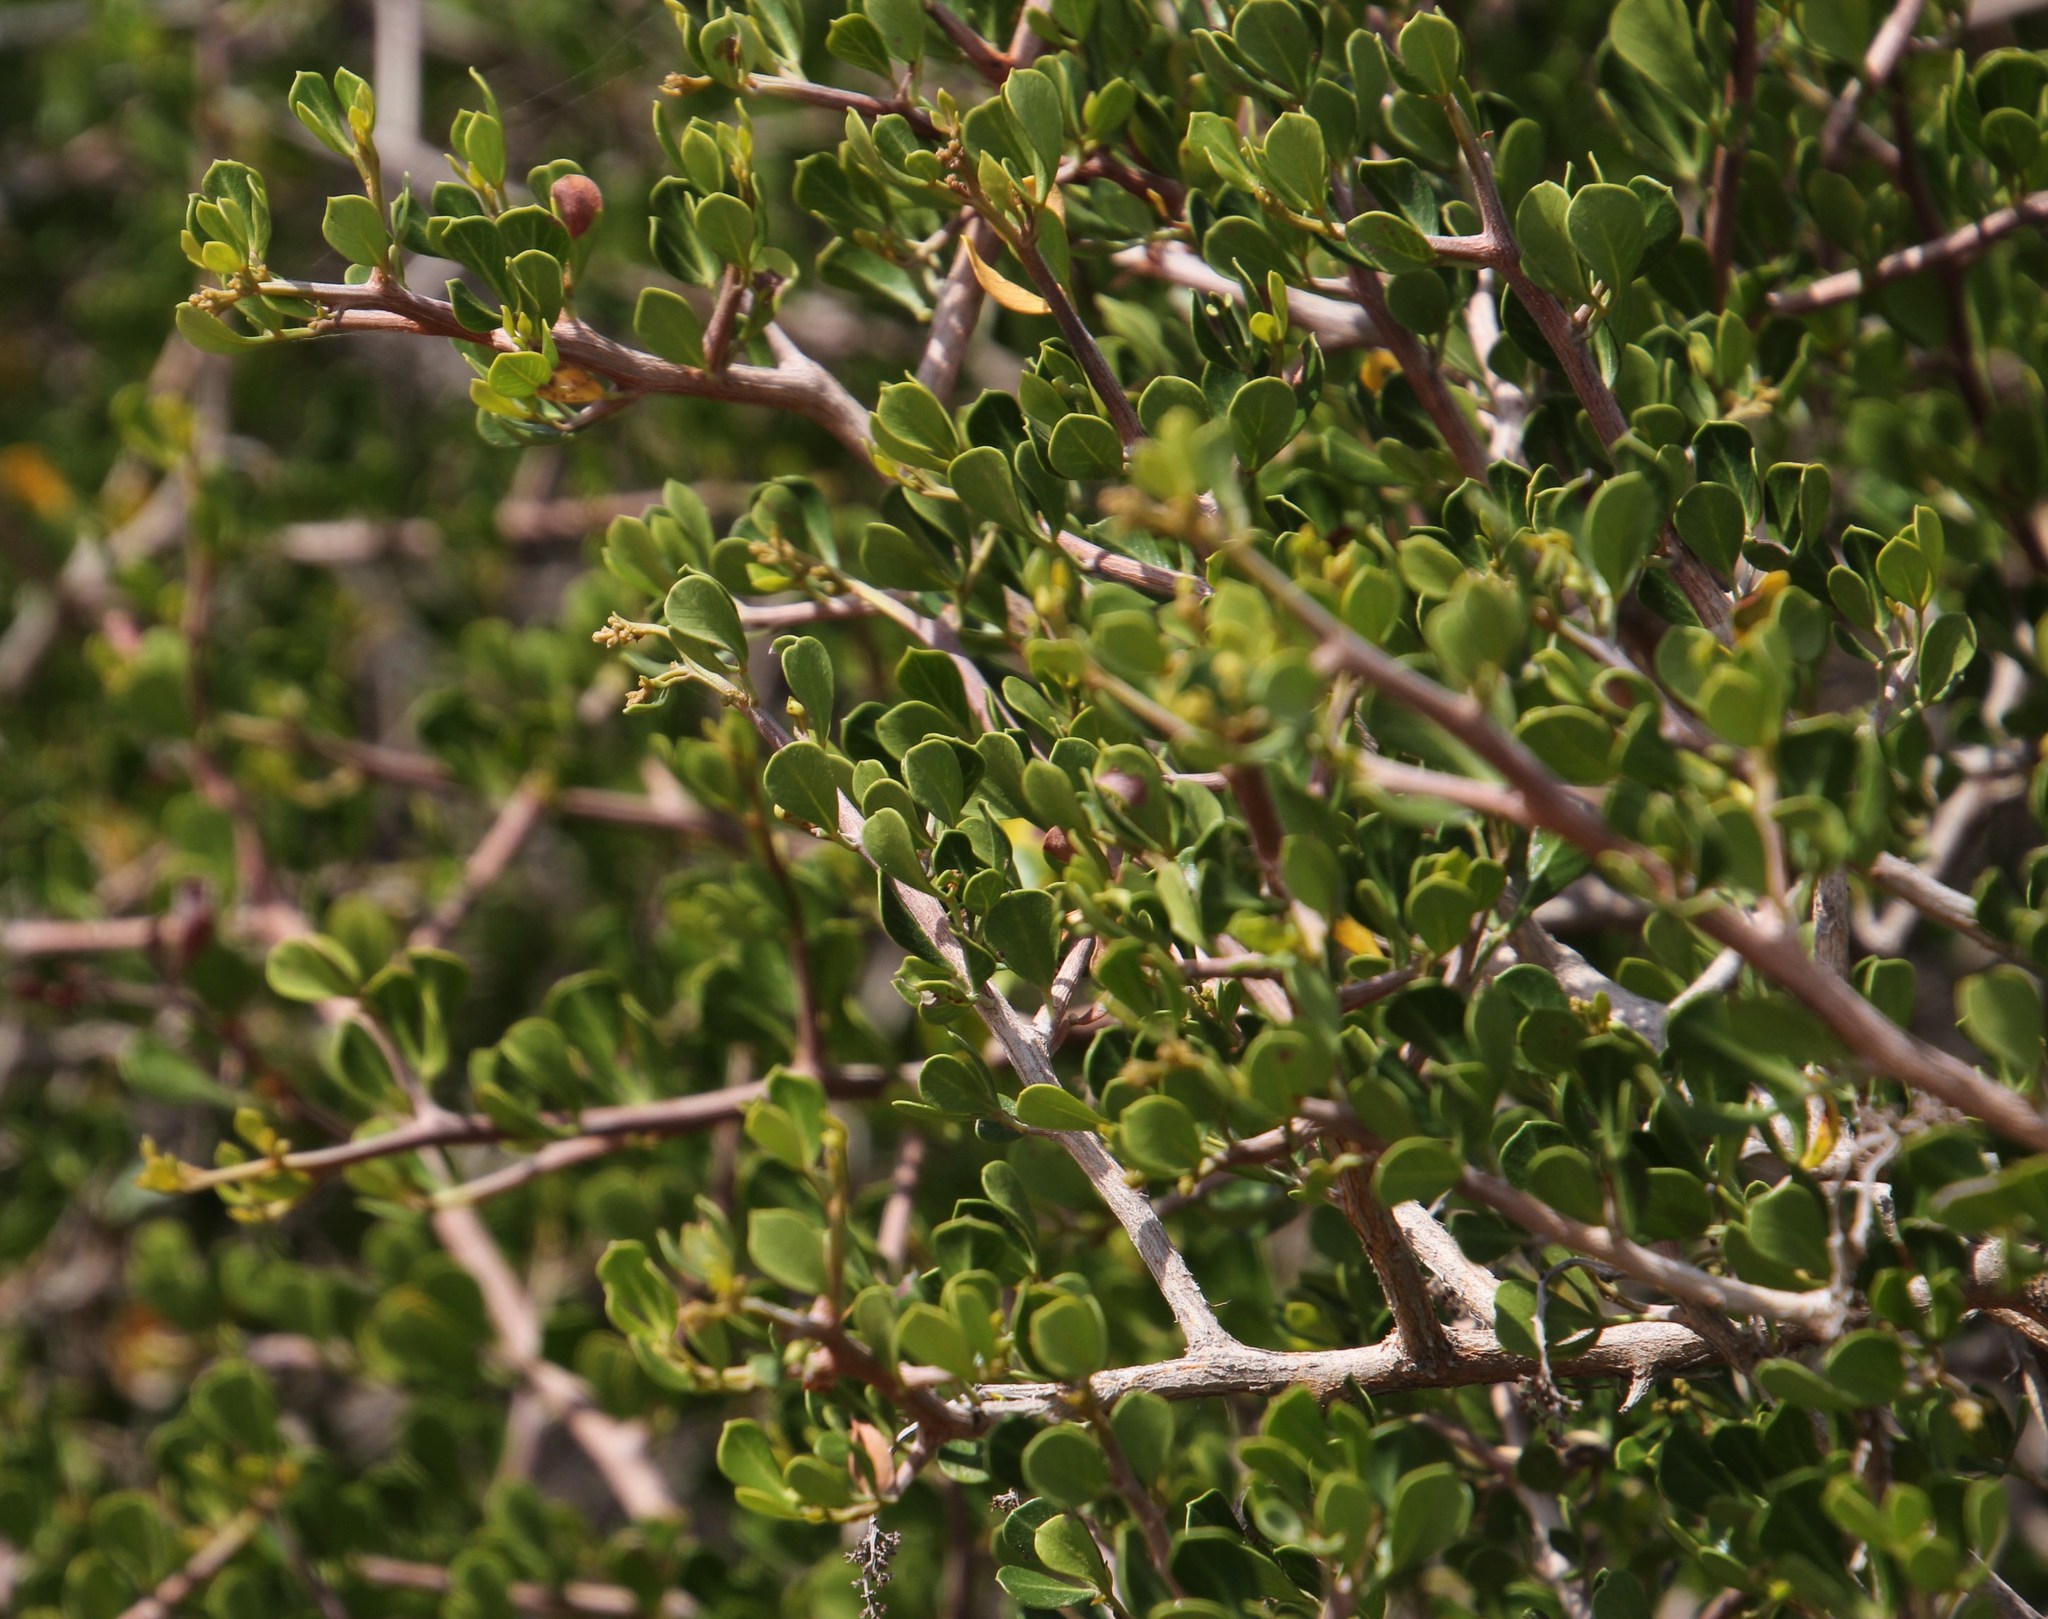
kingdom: Plantae
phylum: Tracheophyta
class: Magnoliopsida
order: Sapindales
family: Anacardiaceae
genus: Searsia
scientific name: Searsia glauca
